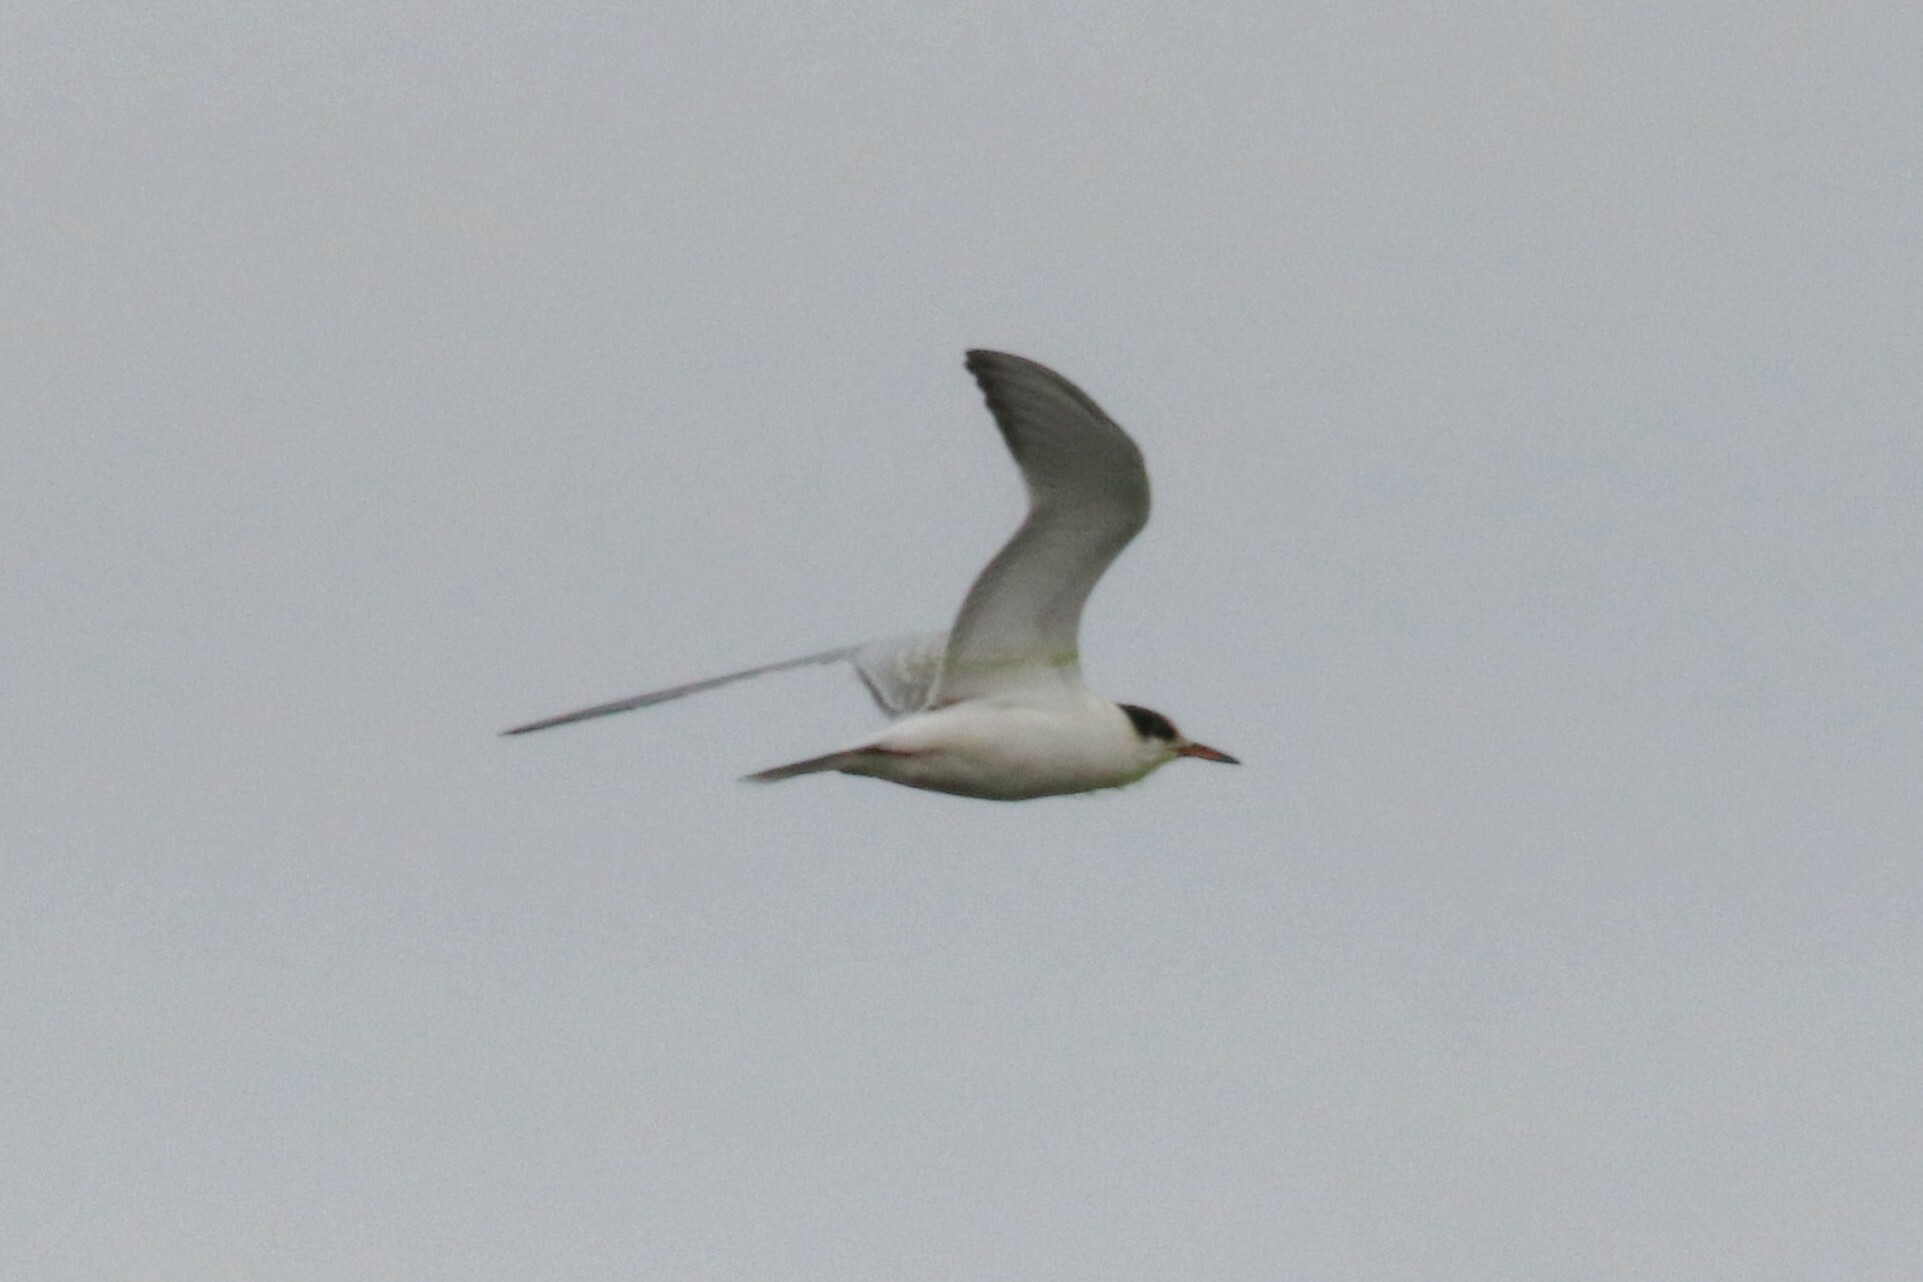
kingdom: Animalia
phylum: Chordata
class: Aves
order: Charadriiformes
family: Laridae
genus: Sterna
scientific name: Sterna hirundo
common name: Common tern
